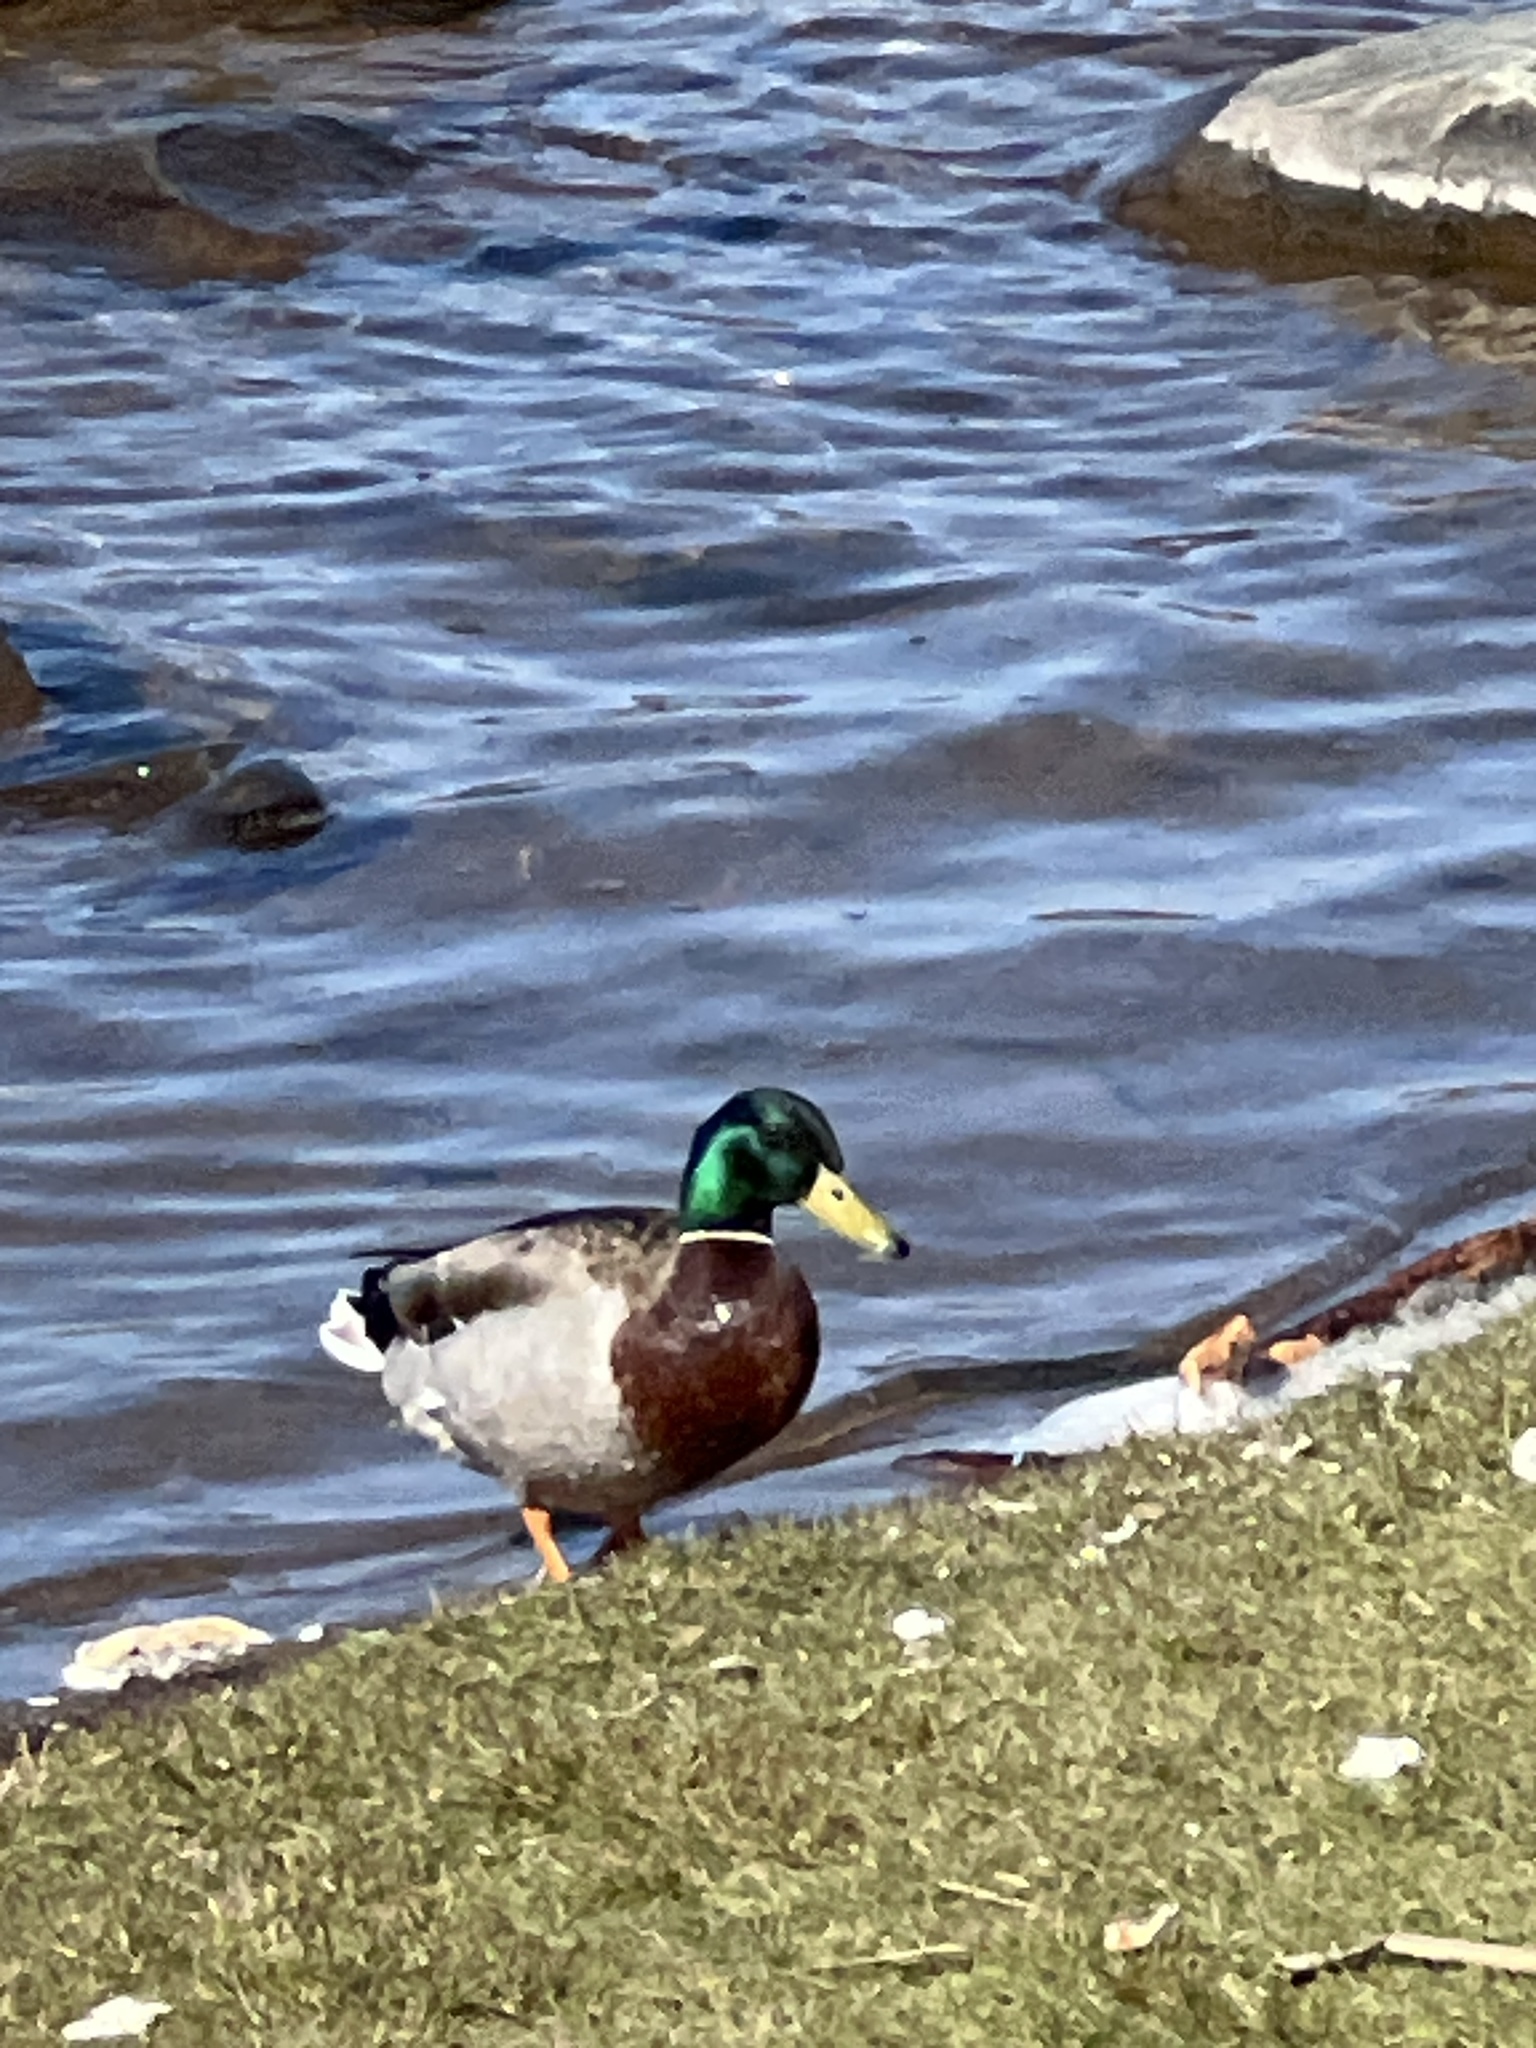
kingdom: Animalia
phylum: Chordata
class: Aves
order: Anseriformes
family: Anatidae
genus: Anas
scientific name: Anas platyrhynchos
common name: Mallard
